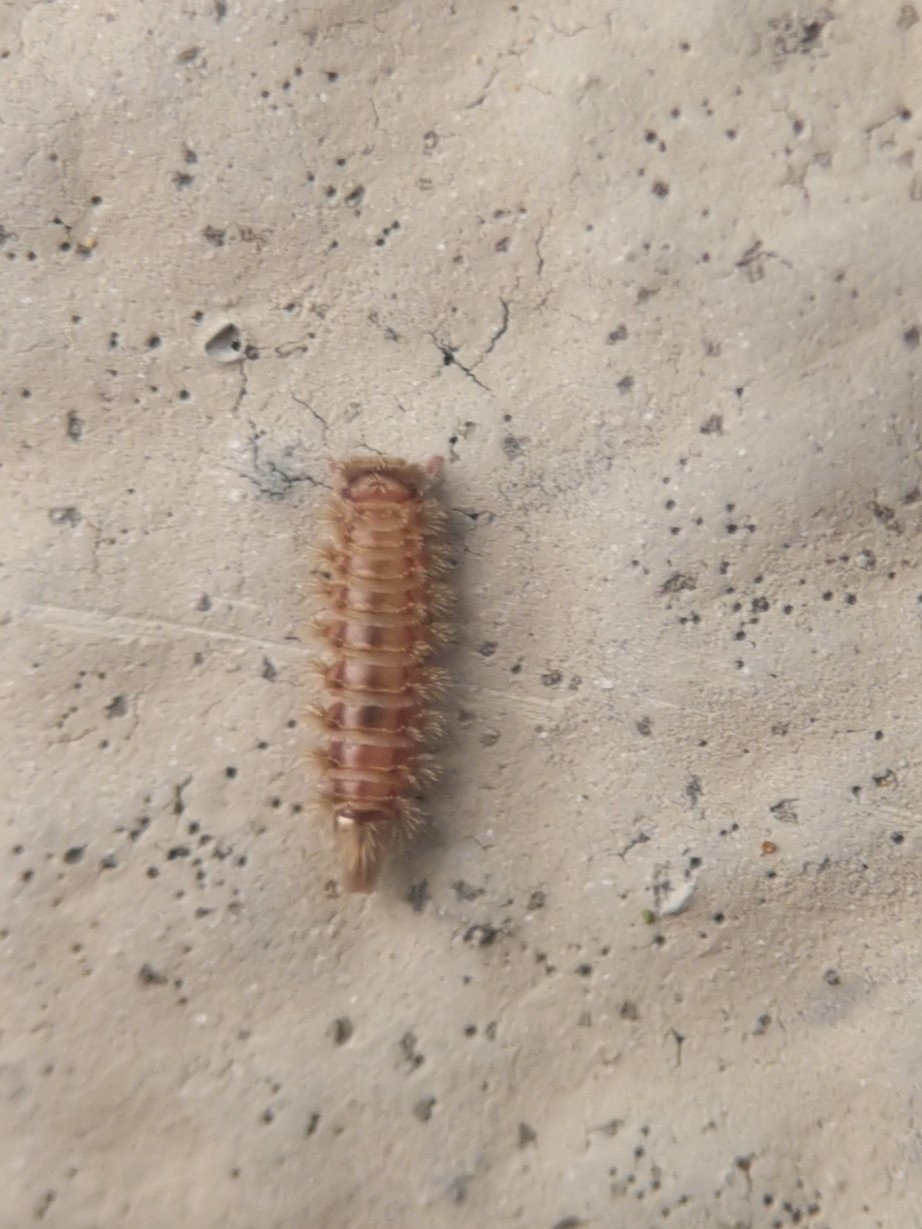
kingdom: Animalia
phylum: Arthropoda
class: Diplopoda
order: Polyxenida
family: Polyxenidae
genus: Polyxenus
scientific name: Polyxenus lagurus
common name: Bristly millipede
